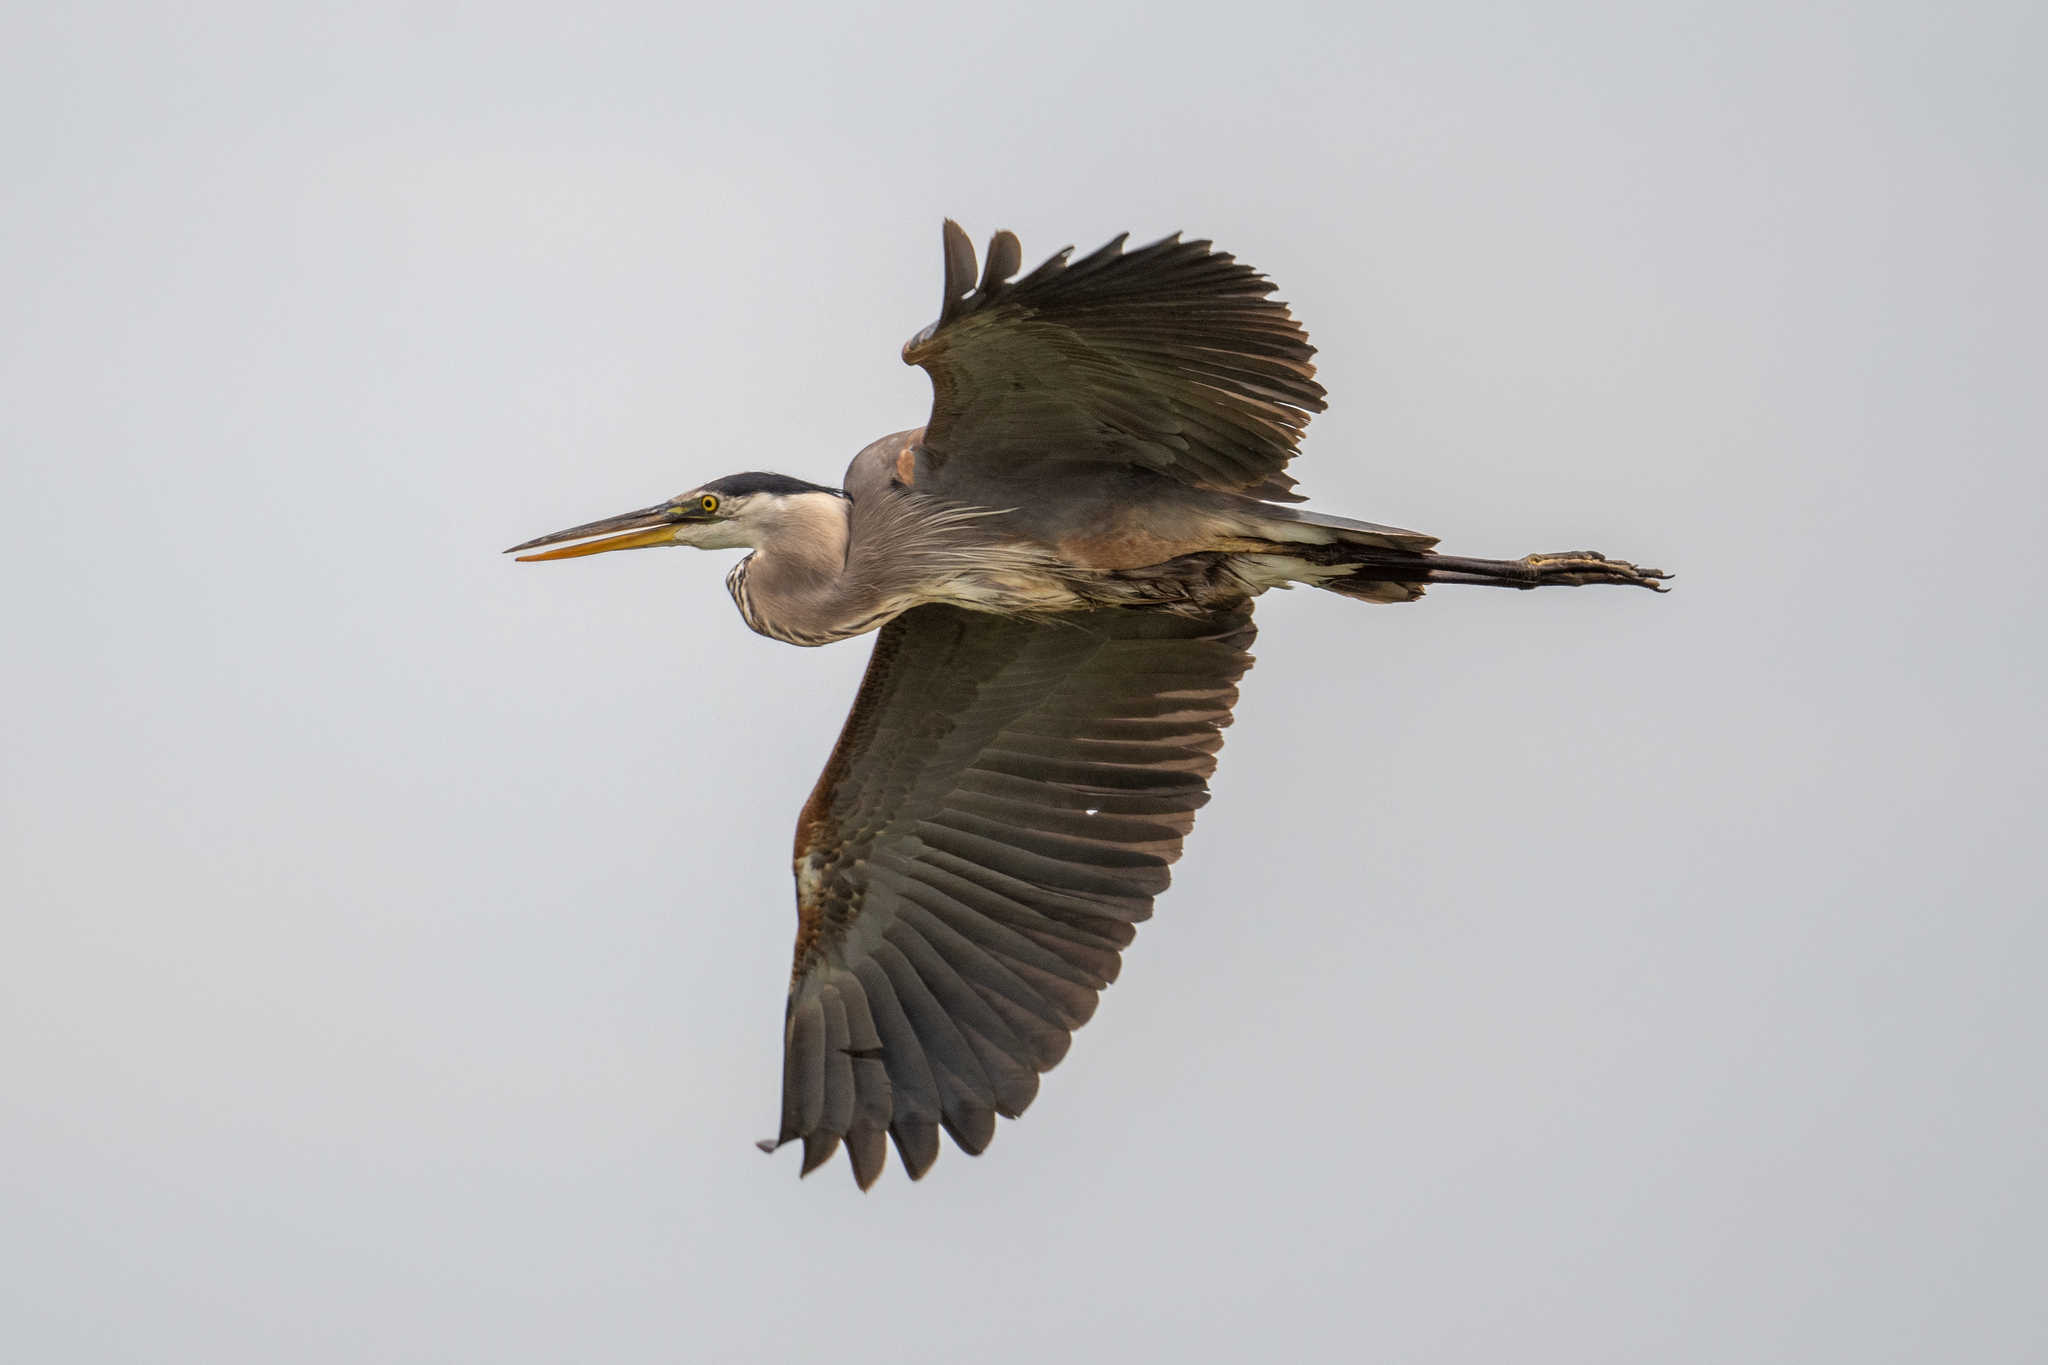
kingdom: Animalia
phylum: Chordata
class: Aves
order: Pelecaniformes
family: Ardeidae
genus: Ardea
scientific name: Ardea herodias
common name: Great blue heron
